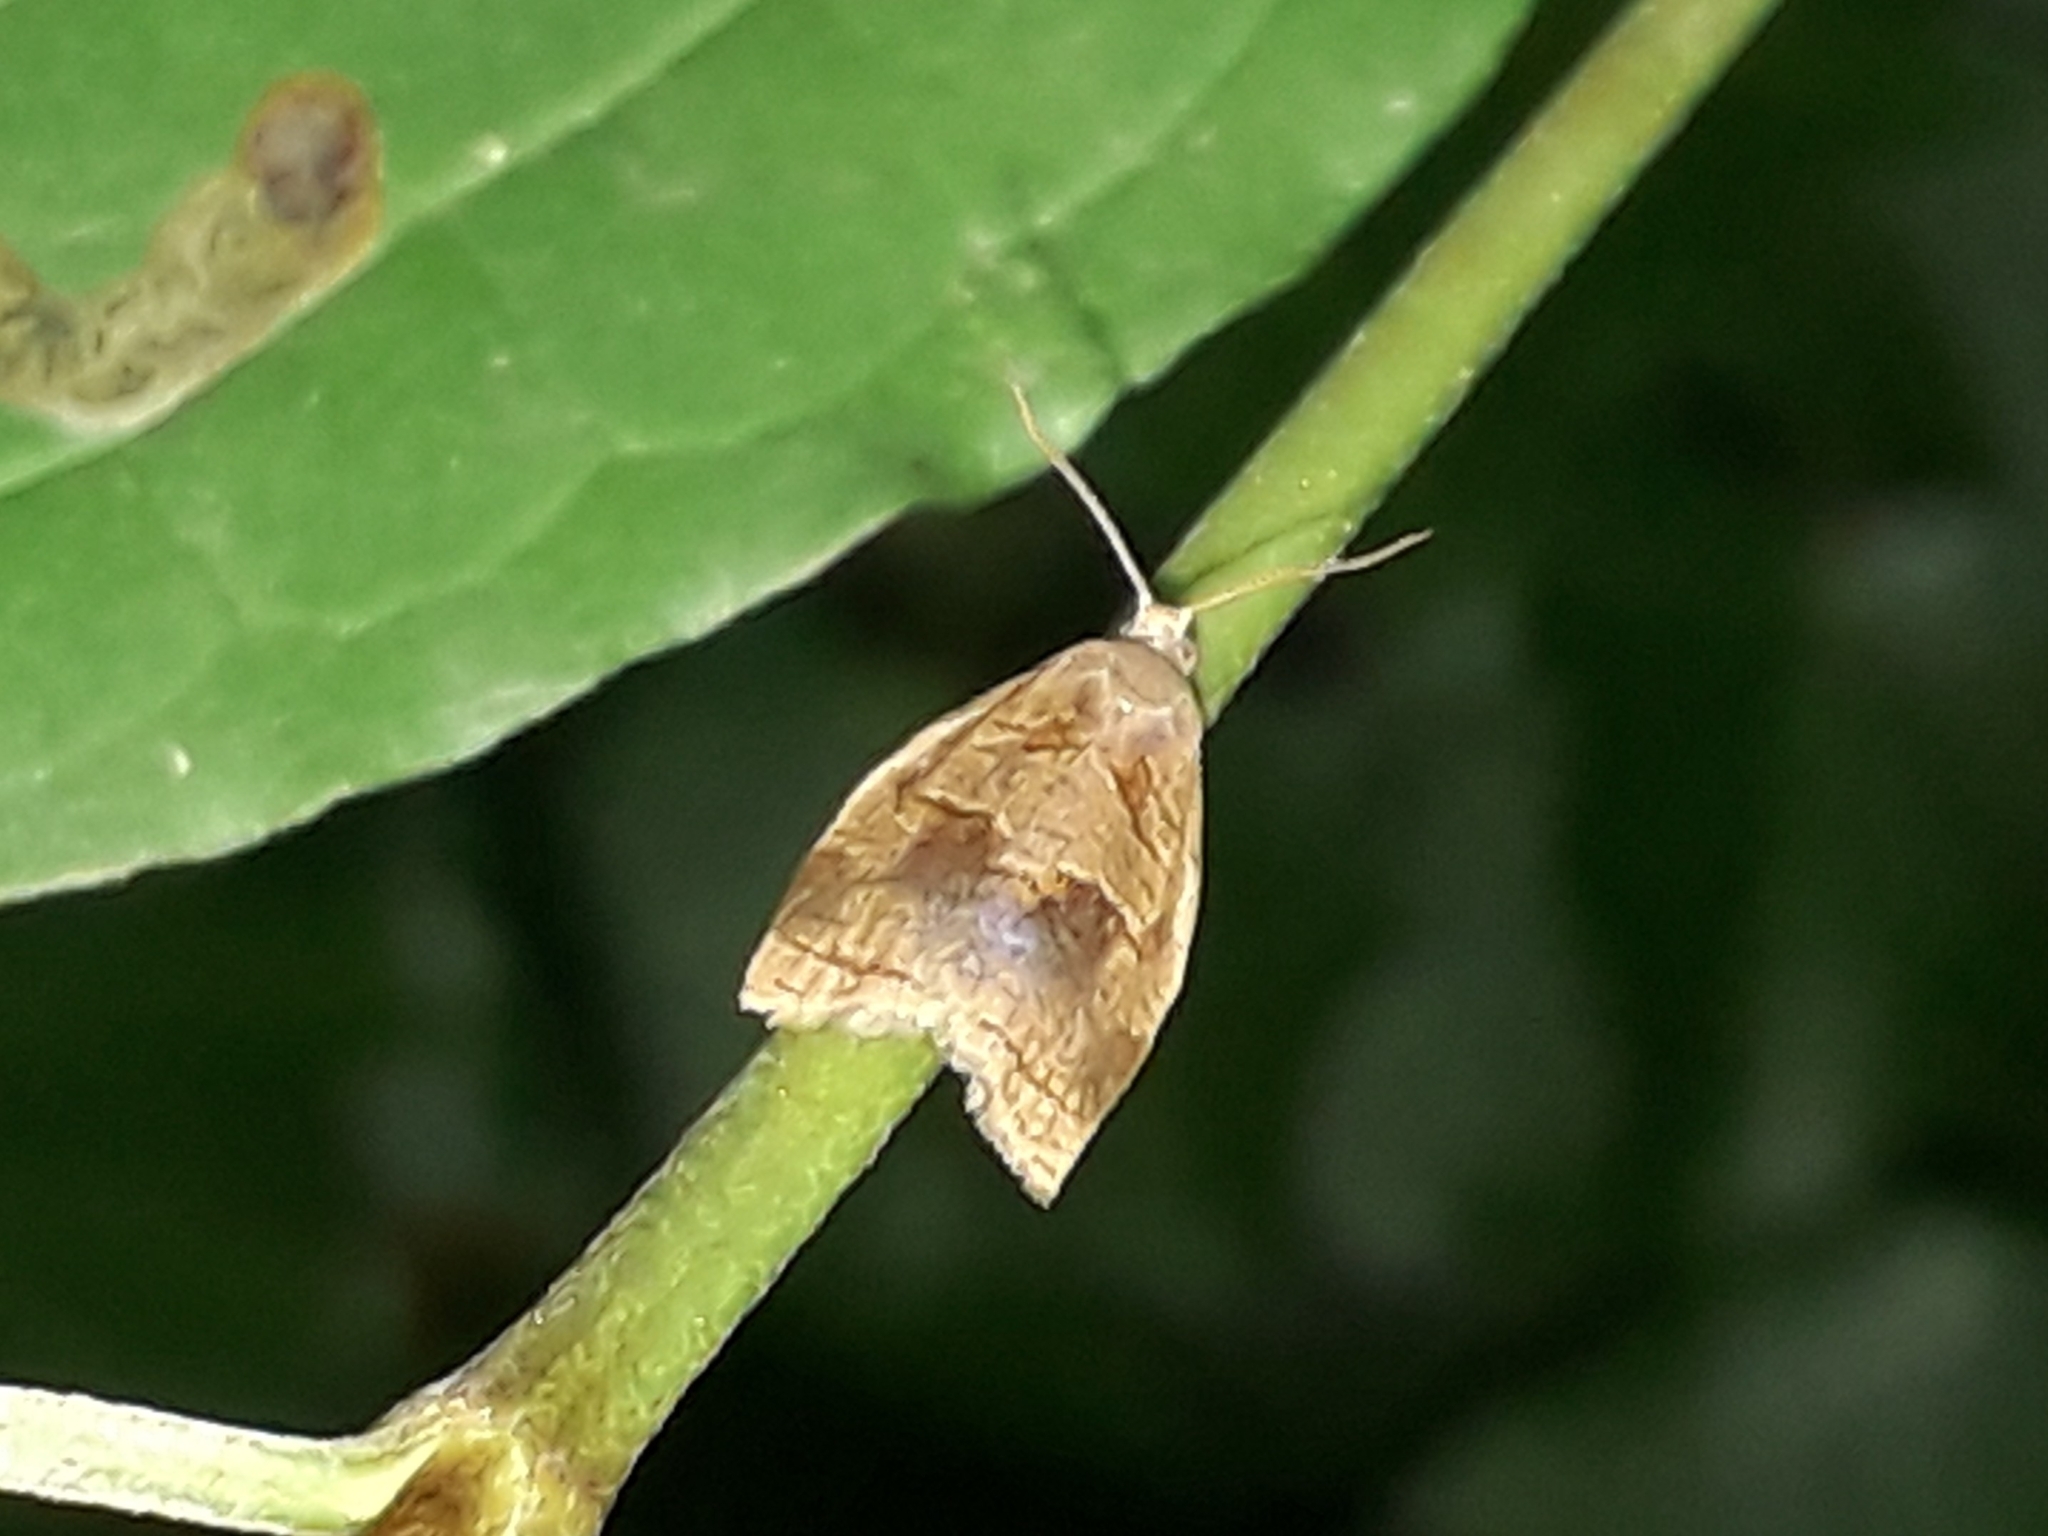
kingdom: Animalia
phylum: Arthropoda
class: Insecta
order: Lepidoptera
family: Tortricidae
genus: Archips
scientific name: Archips rosana
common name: Rose tortrix
